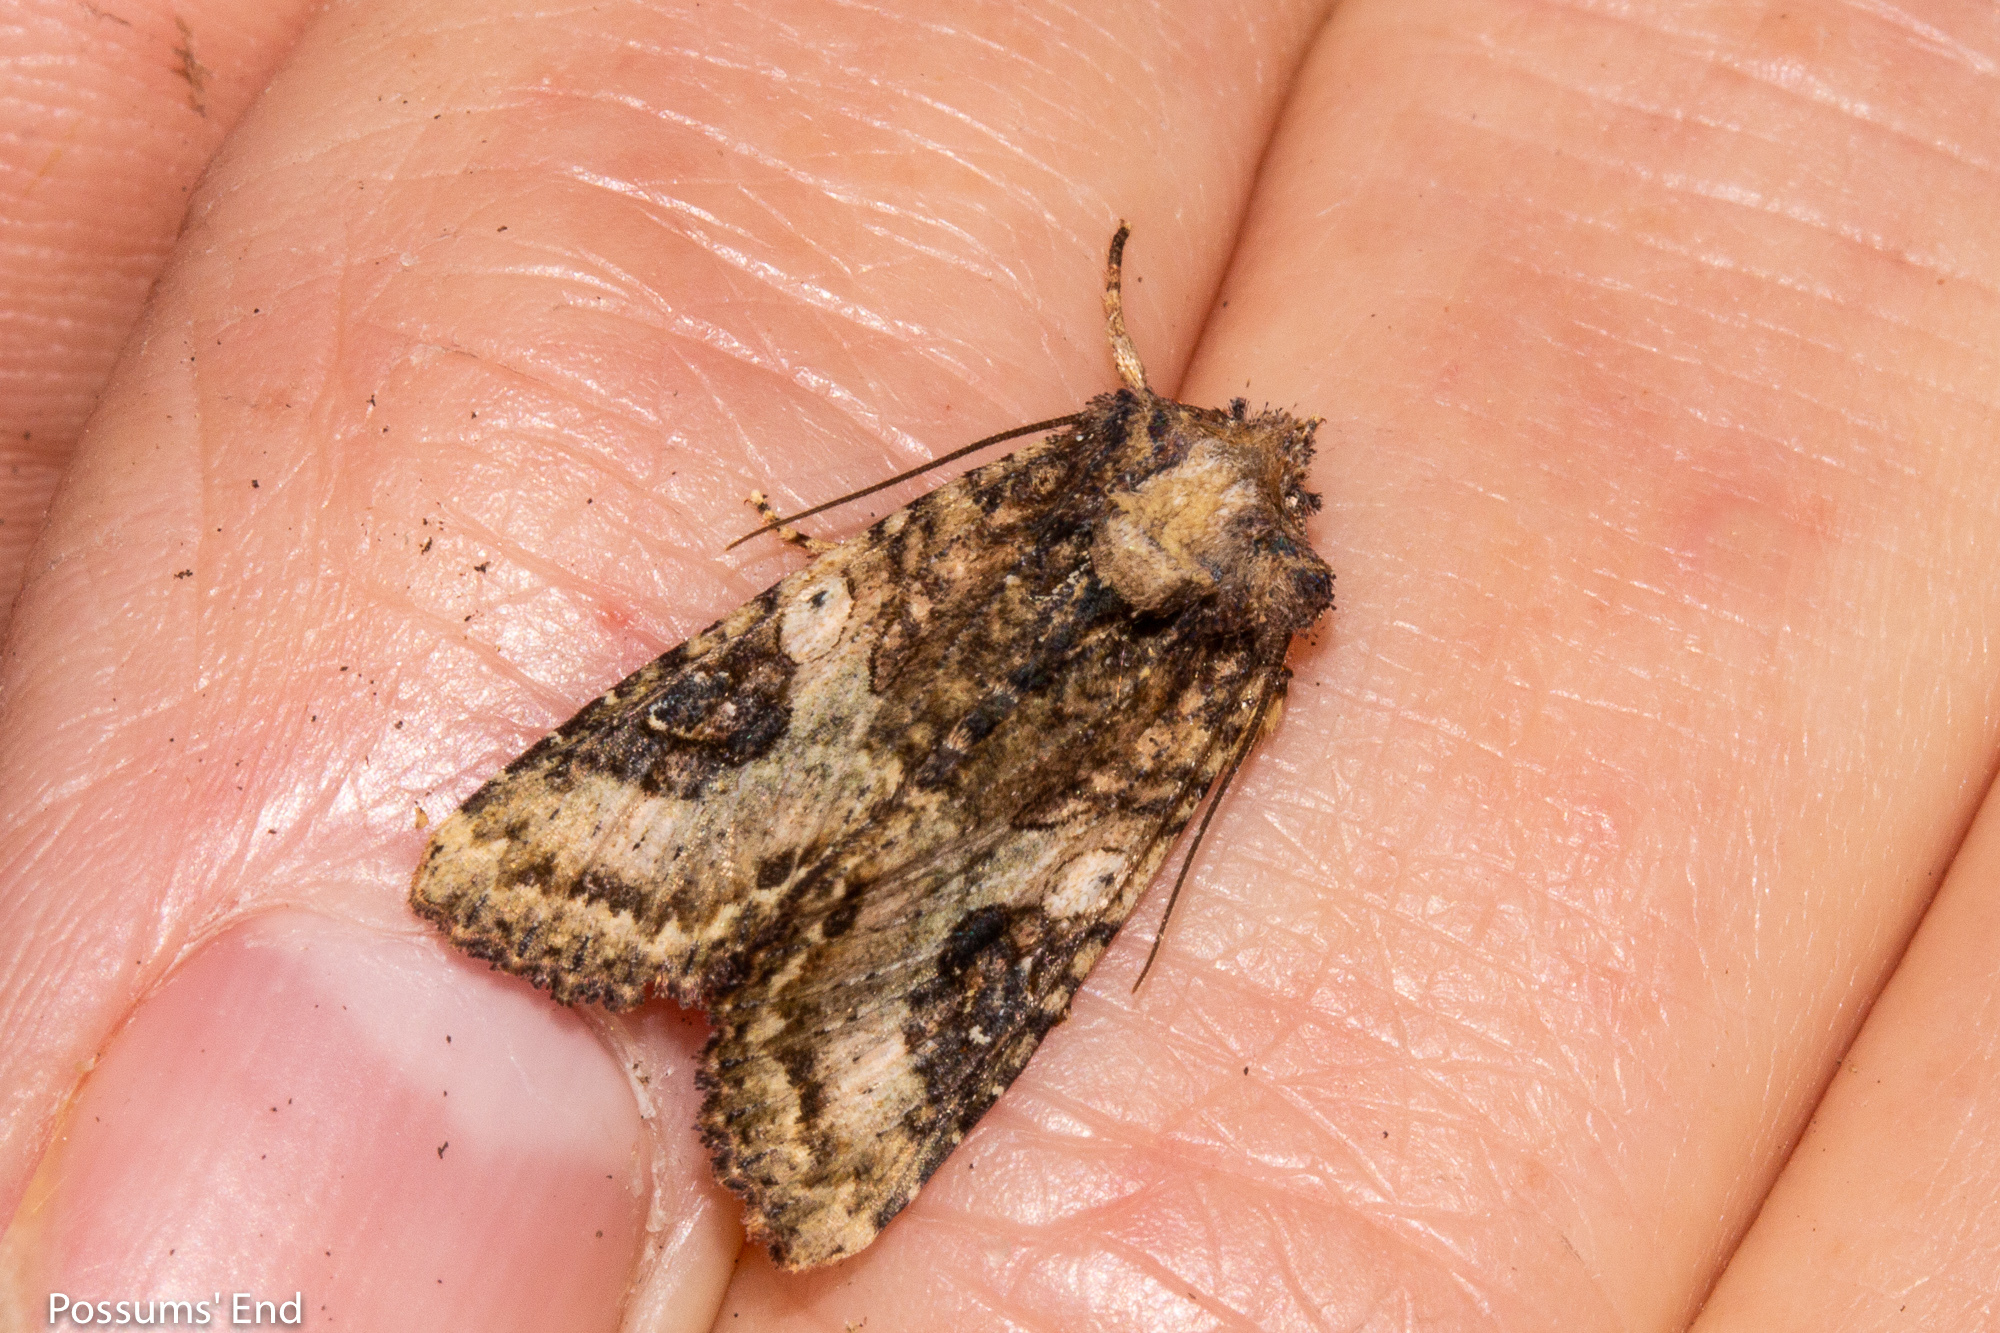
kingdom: Animalia
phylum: Arthropoda
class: Insecta
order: Lepidoptera
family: Noctuidae
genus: Meterana
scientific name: Meterana octans
